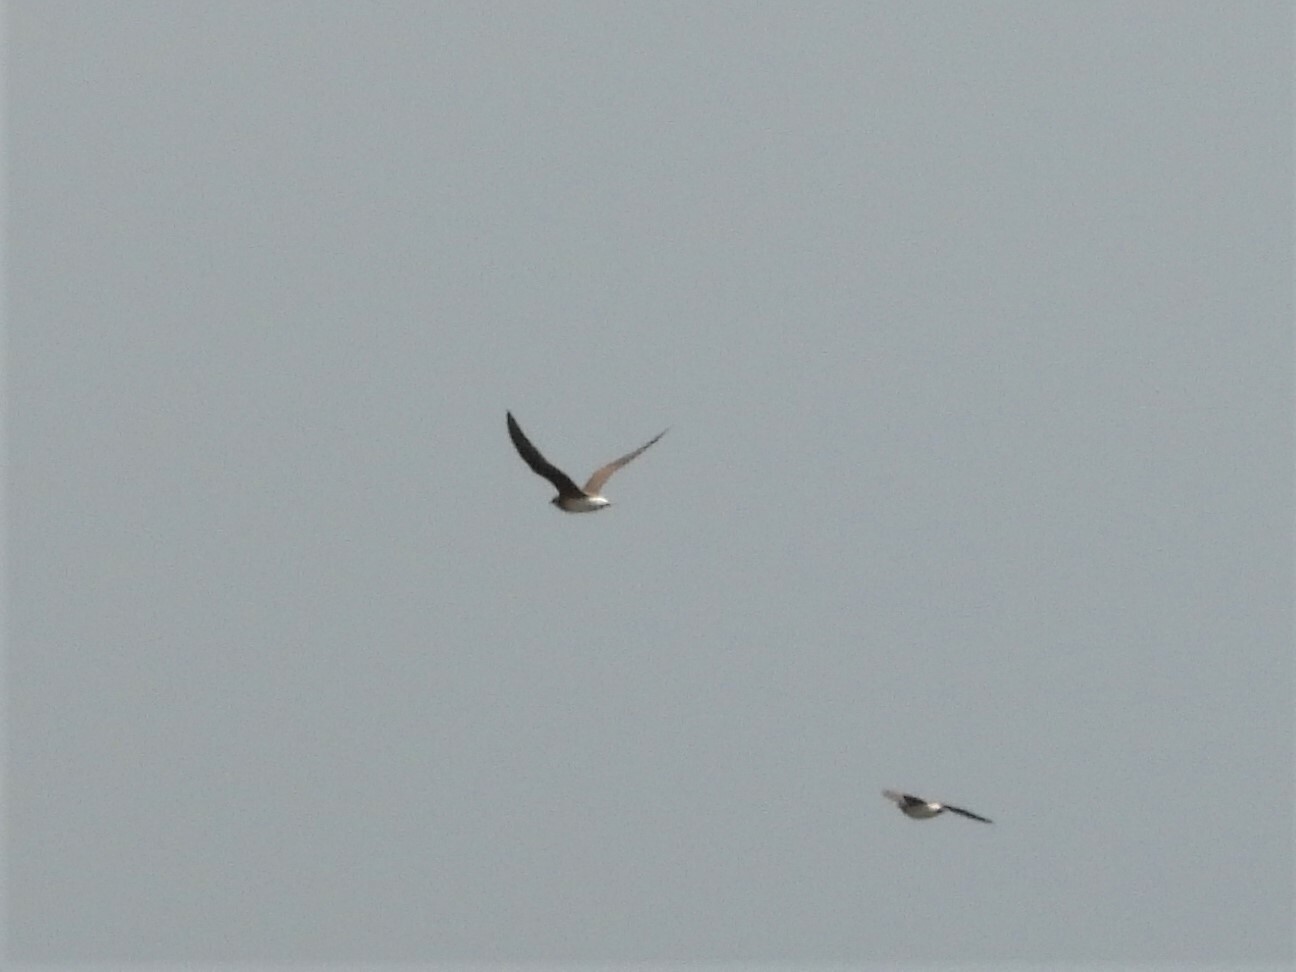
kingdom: Animalia
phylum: Chordata
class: Aves
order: Charadriiformes
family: Glareolidae
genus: Glareola
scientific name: Glareola maldivarum
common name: Oriental pratincole
